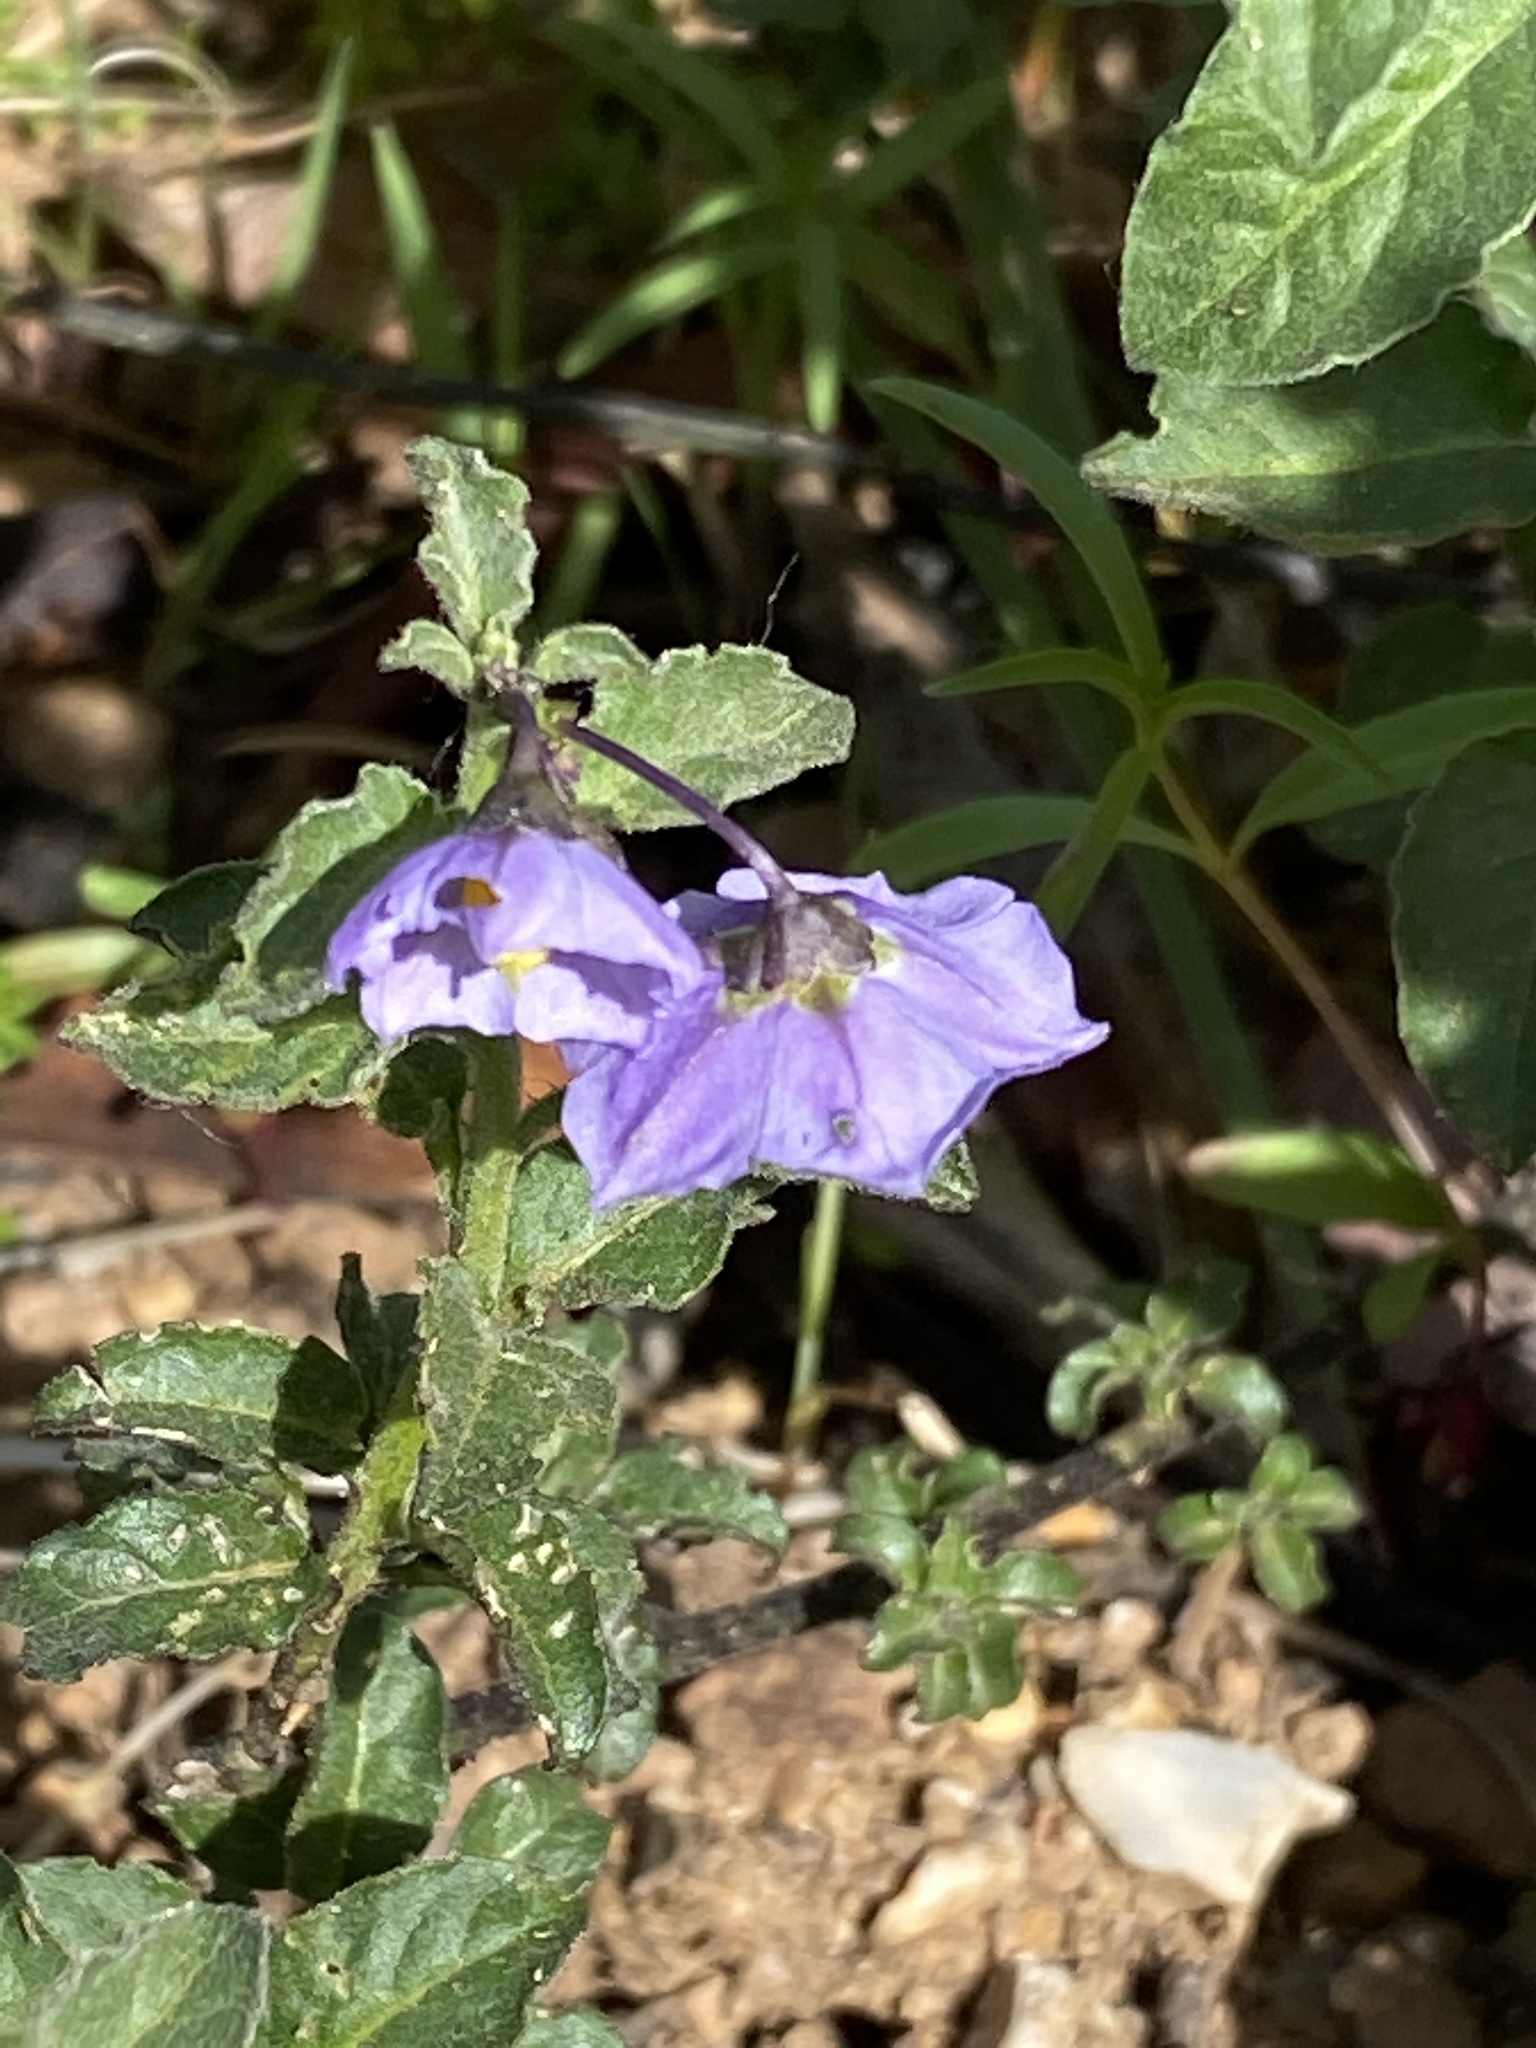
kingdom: Plantae
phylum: Tracheophyta
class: Magnoliopsida
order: Solanales
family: Solanaceae
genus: Solanum
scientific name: Solanum umbelliferum
